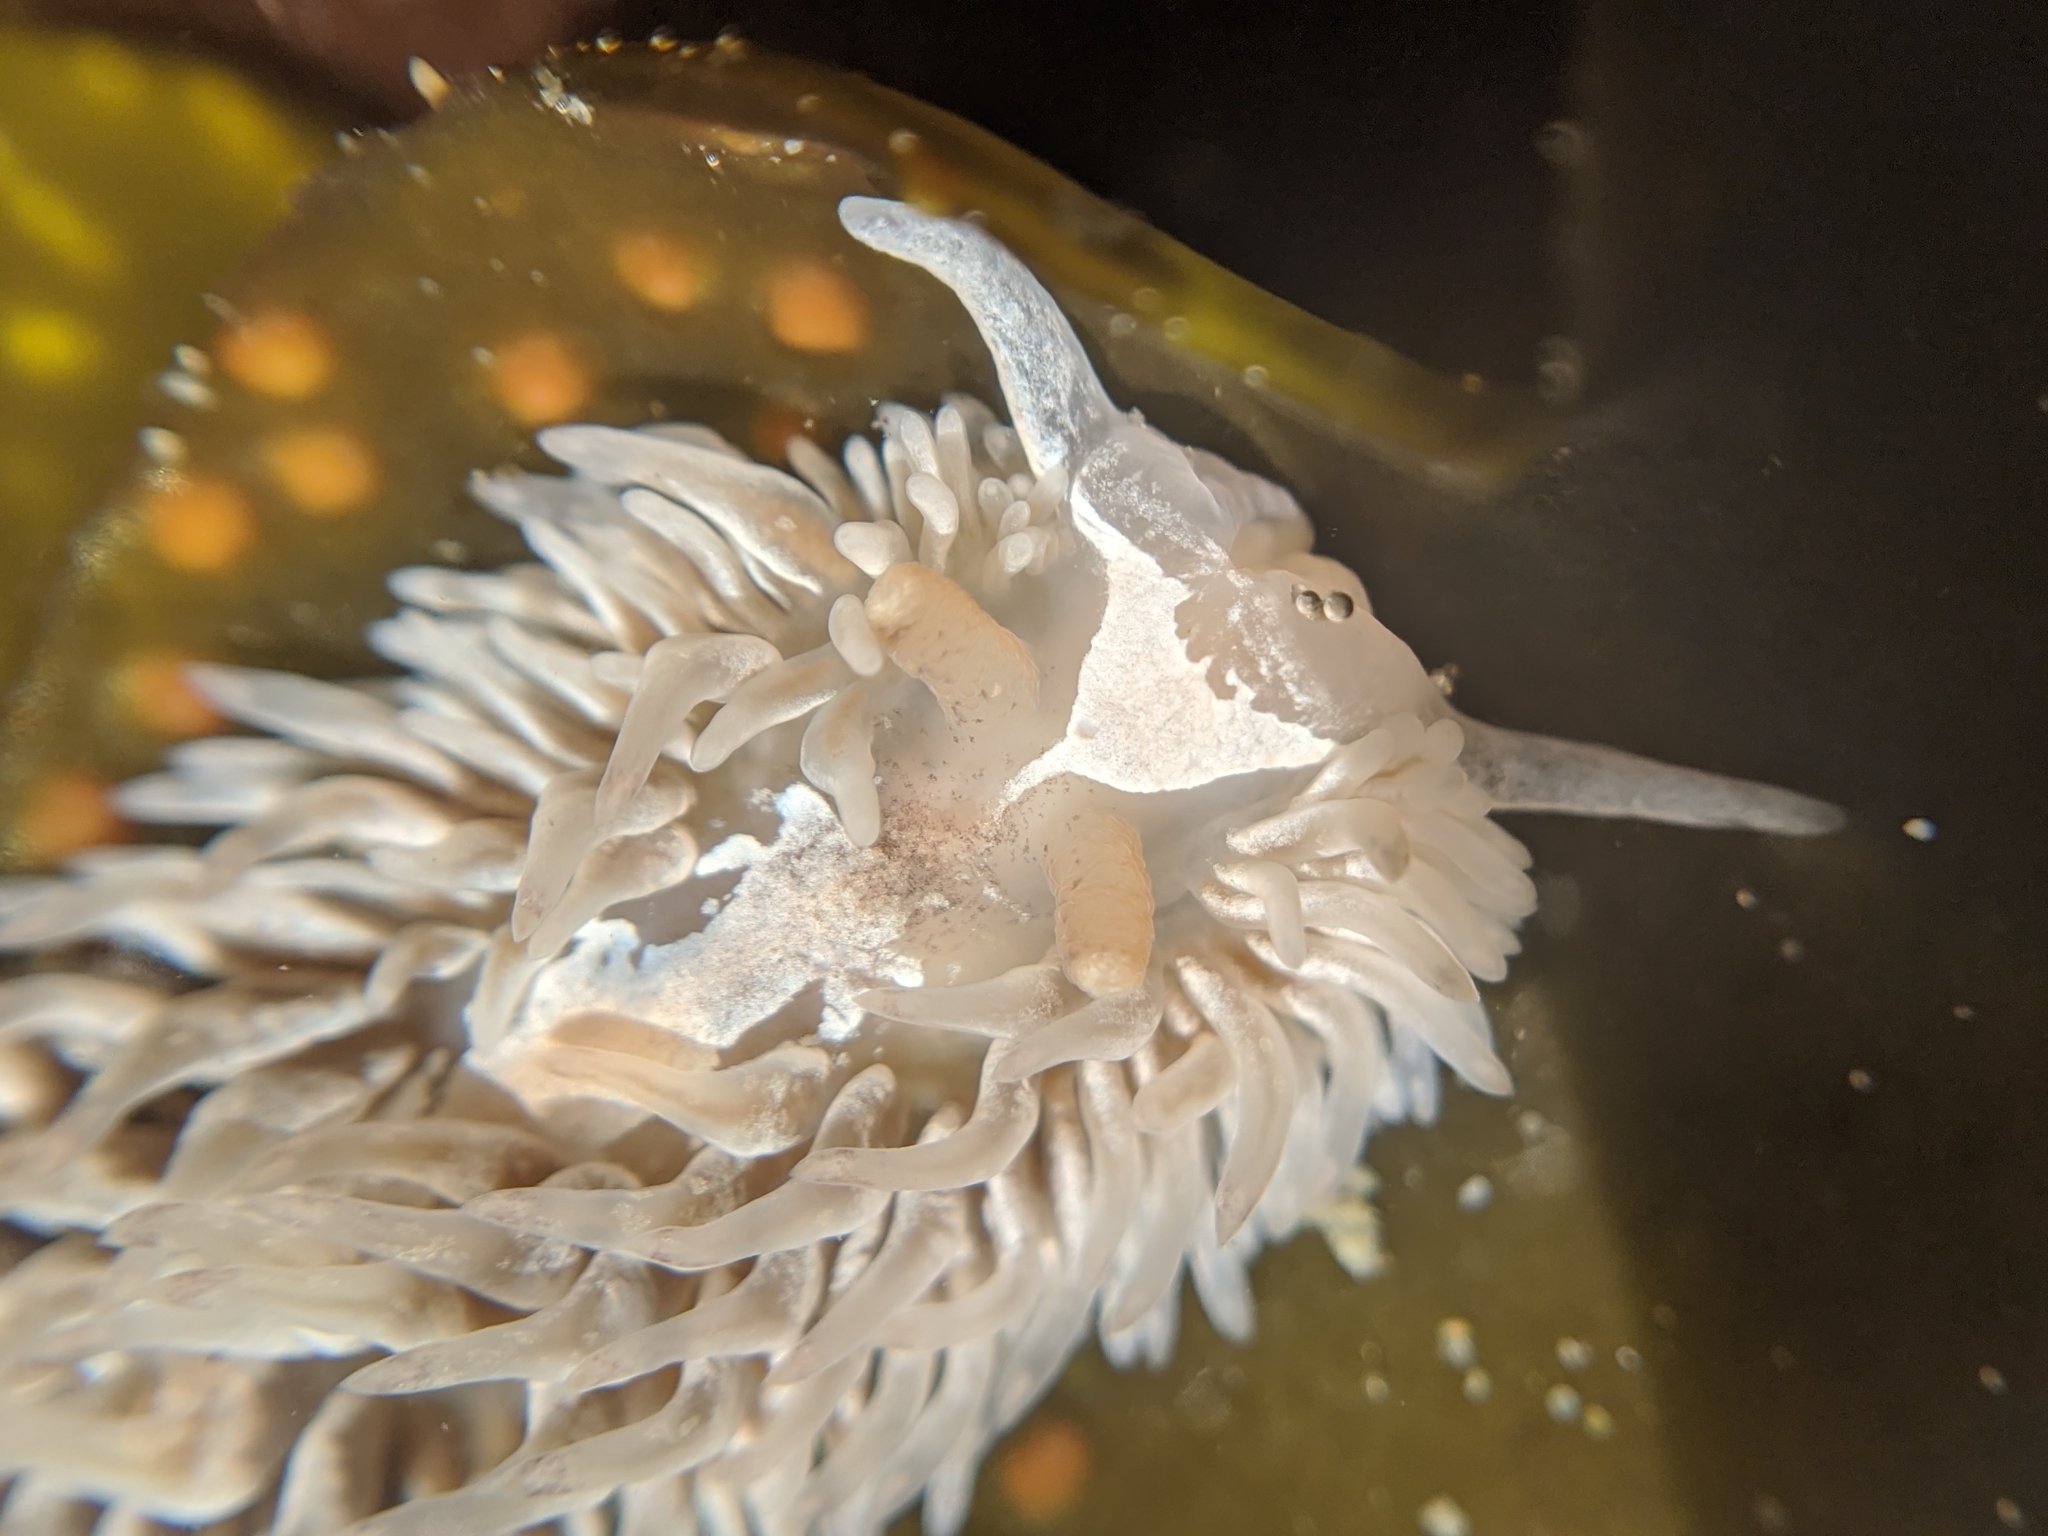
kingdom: Animalia
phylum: Mollusca
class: Gastropoda
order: Nudibranchia
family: Aeolidiidae
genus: Aeolidia
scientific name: Aeolidia loui
